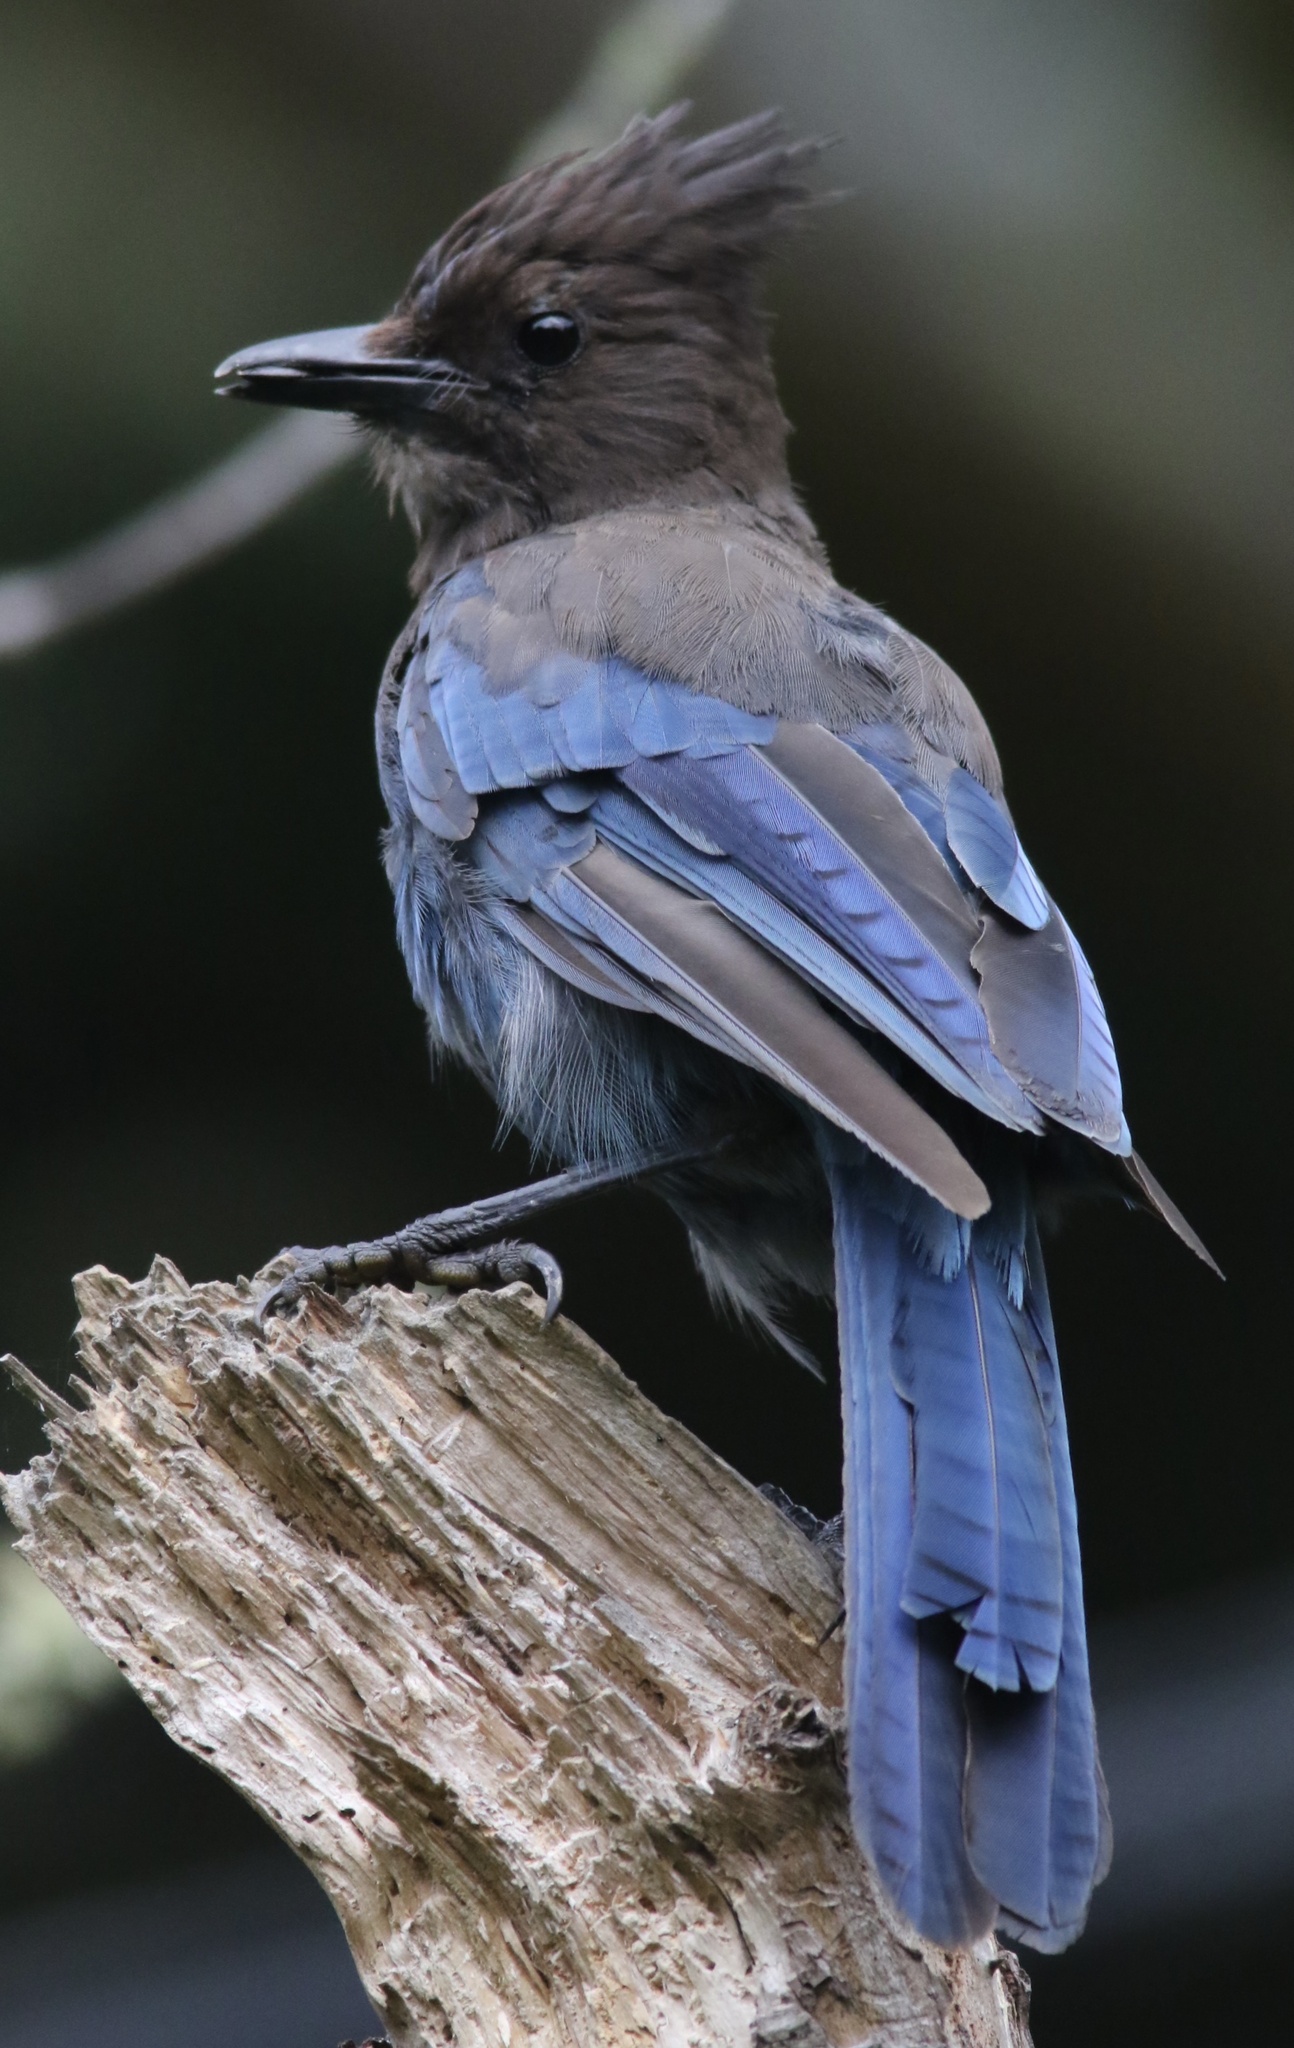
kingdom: Animalia
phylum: Chordata
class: Aves
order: Passeriformes
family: Corvidae
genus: Cyanocitta
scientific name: Cyanocitta stelleri
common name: Steller's jay
